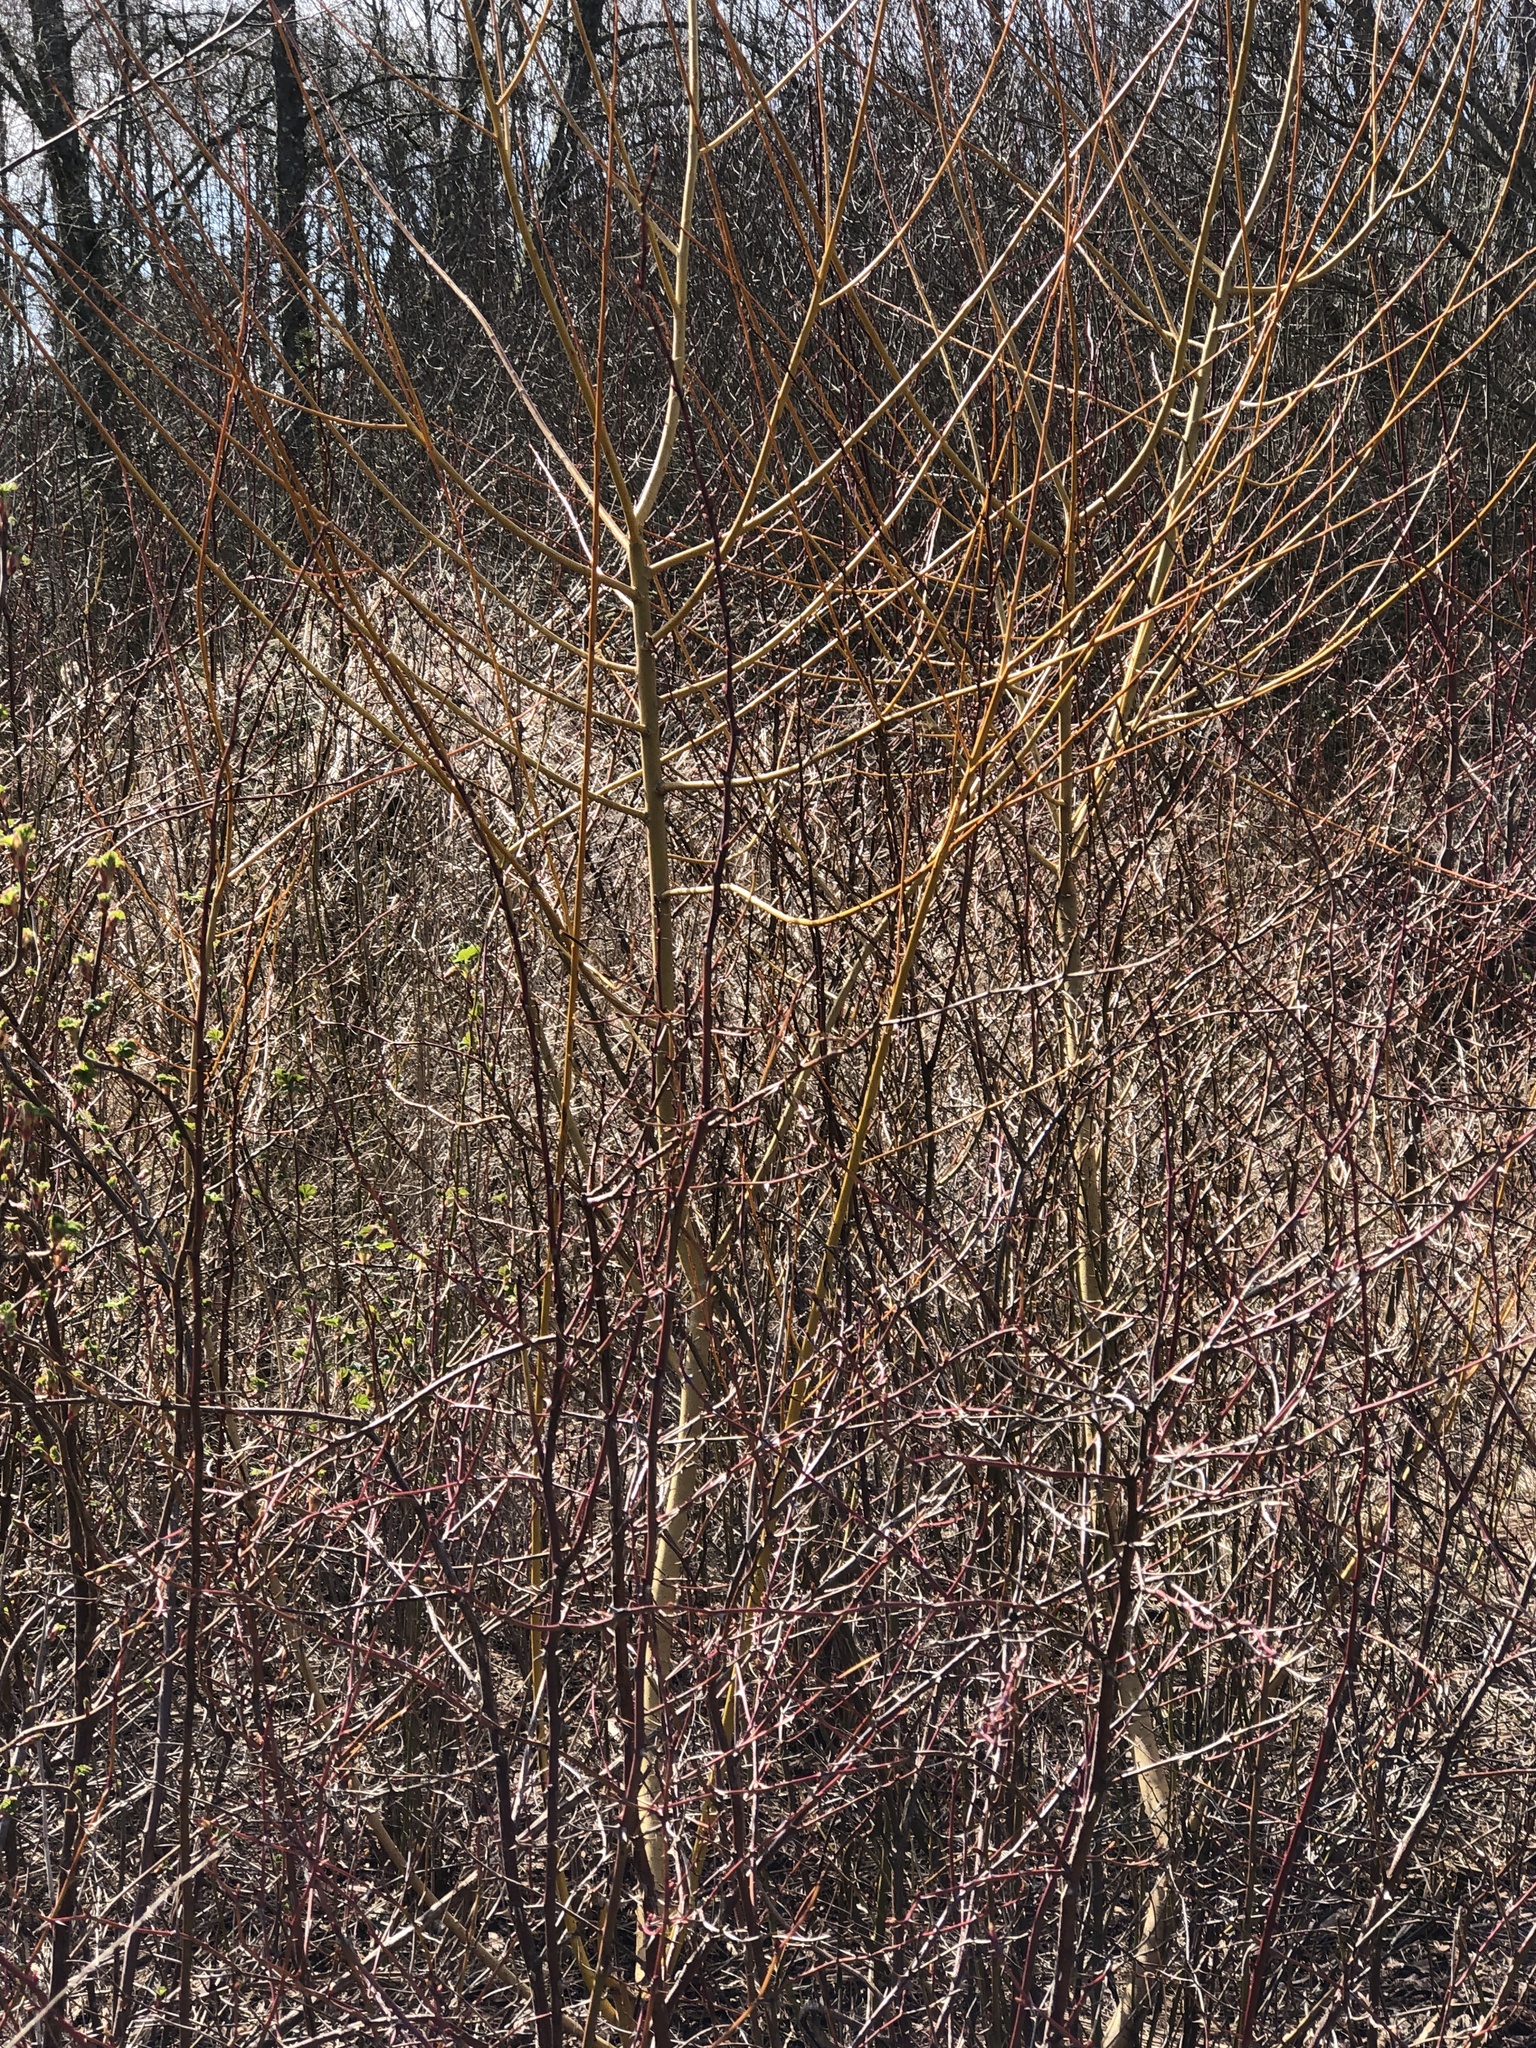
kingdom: Plantae
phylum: Tracheophyta
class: Magnoliopsida
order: Malpighiales
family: Salicaceae
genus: Salix
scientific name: Salix lucida
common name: Shining willow
